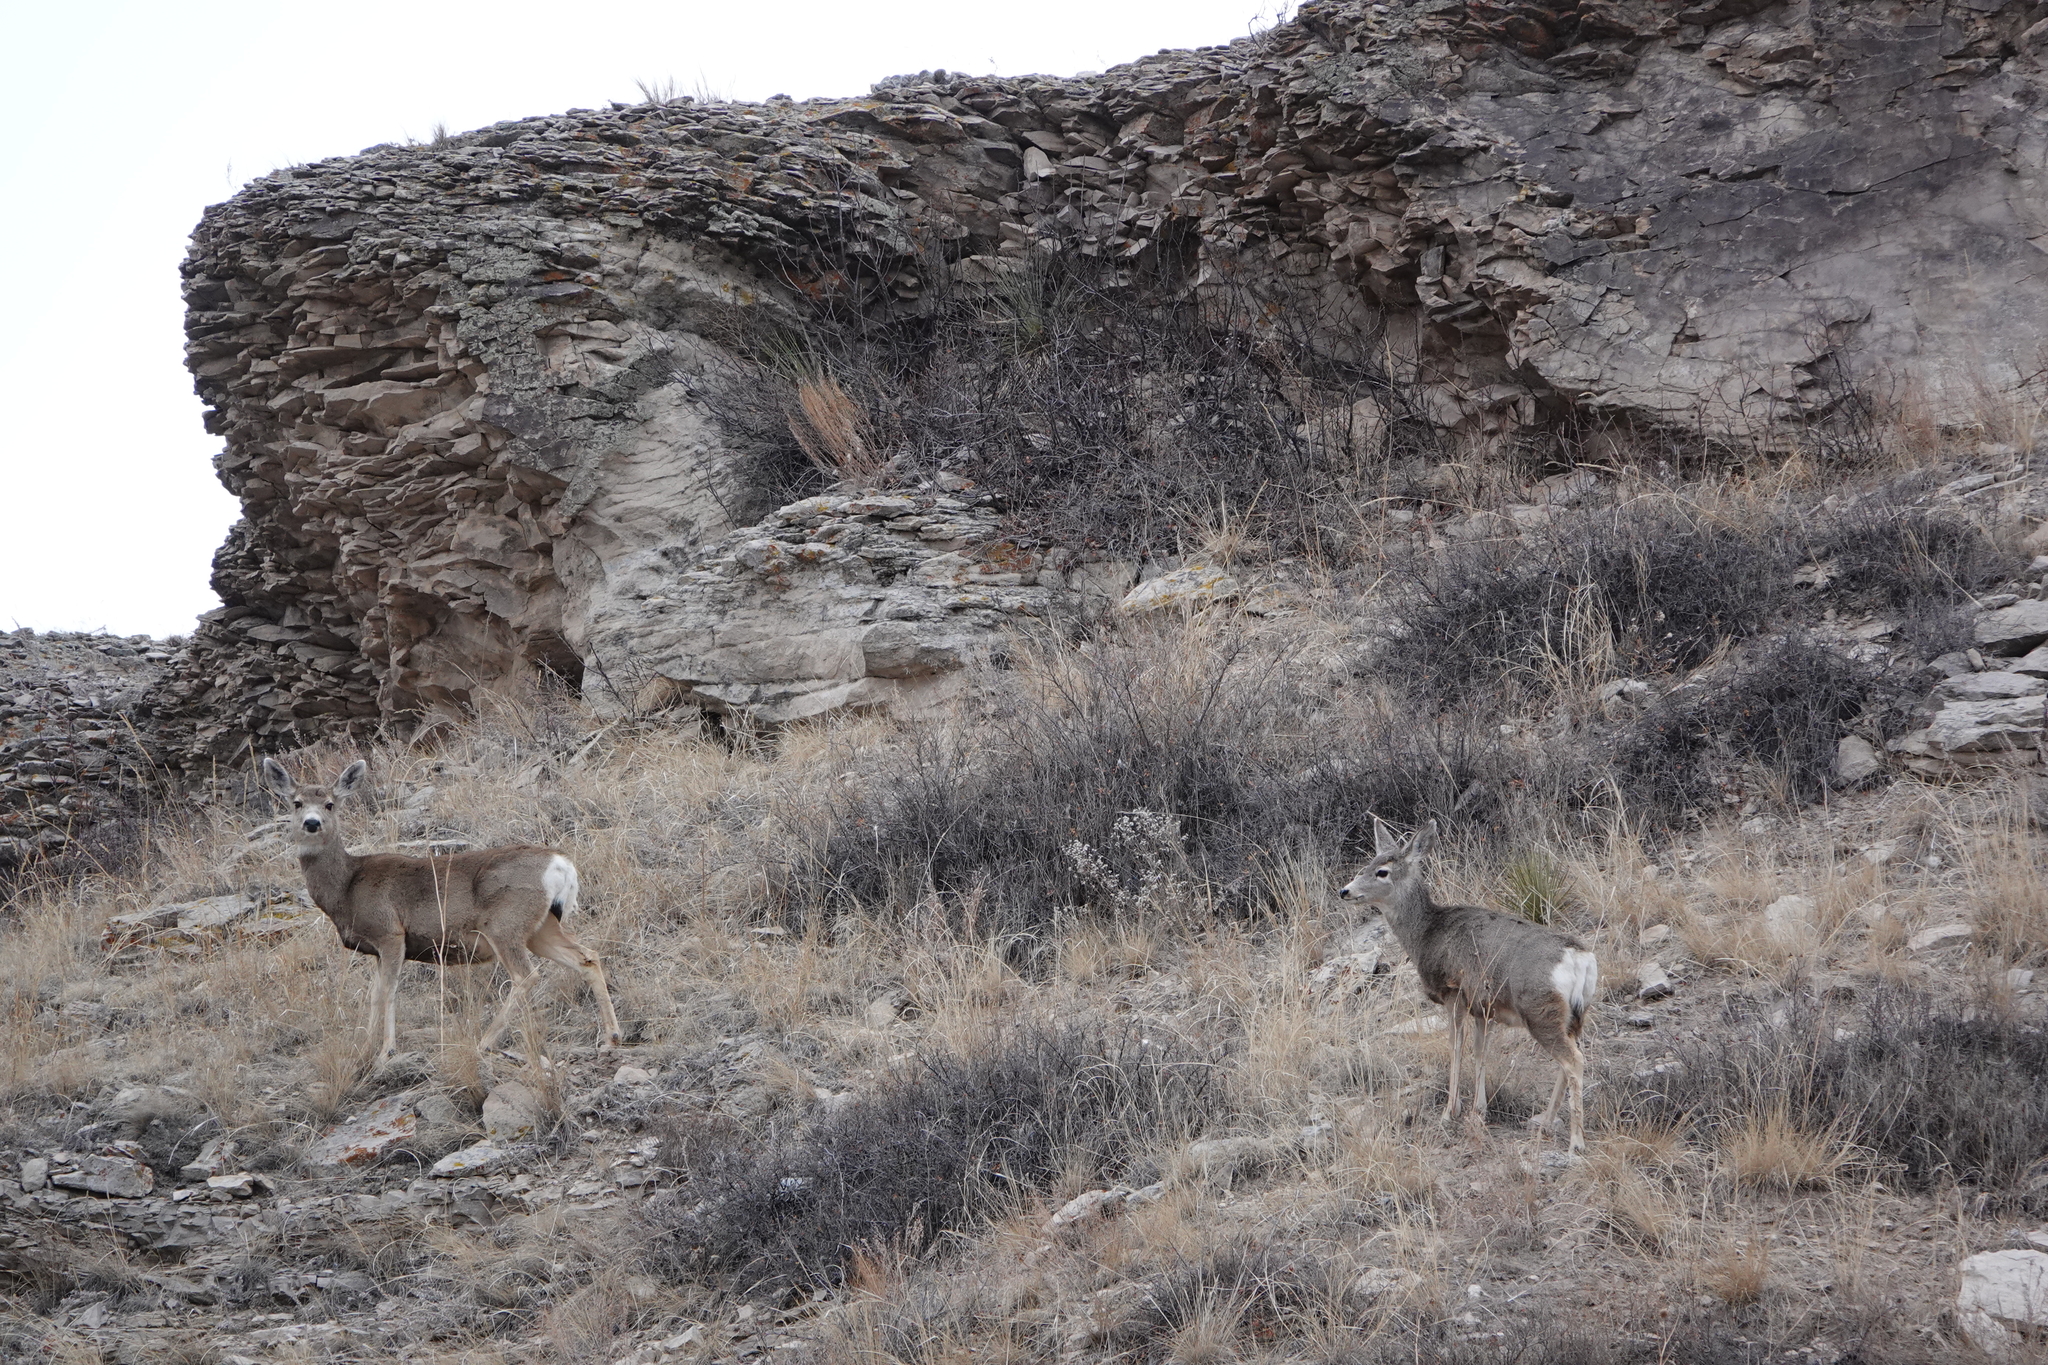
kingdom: Animalia
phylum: Chordata
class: Mammalia
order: Artiodactyla
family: Cervidae
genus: Odocoileus
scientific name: Odocoileus hemionus
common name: Mule deer
